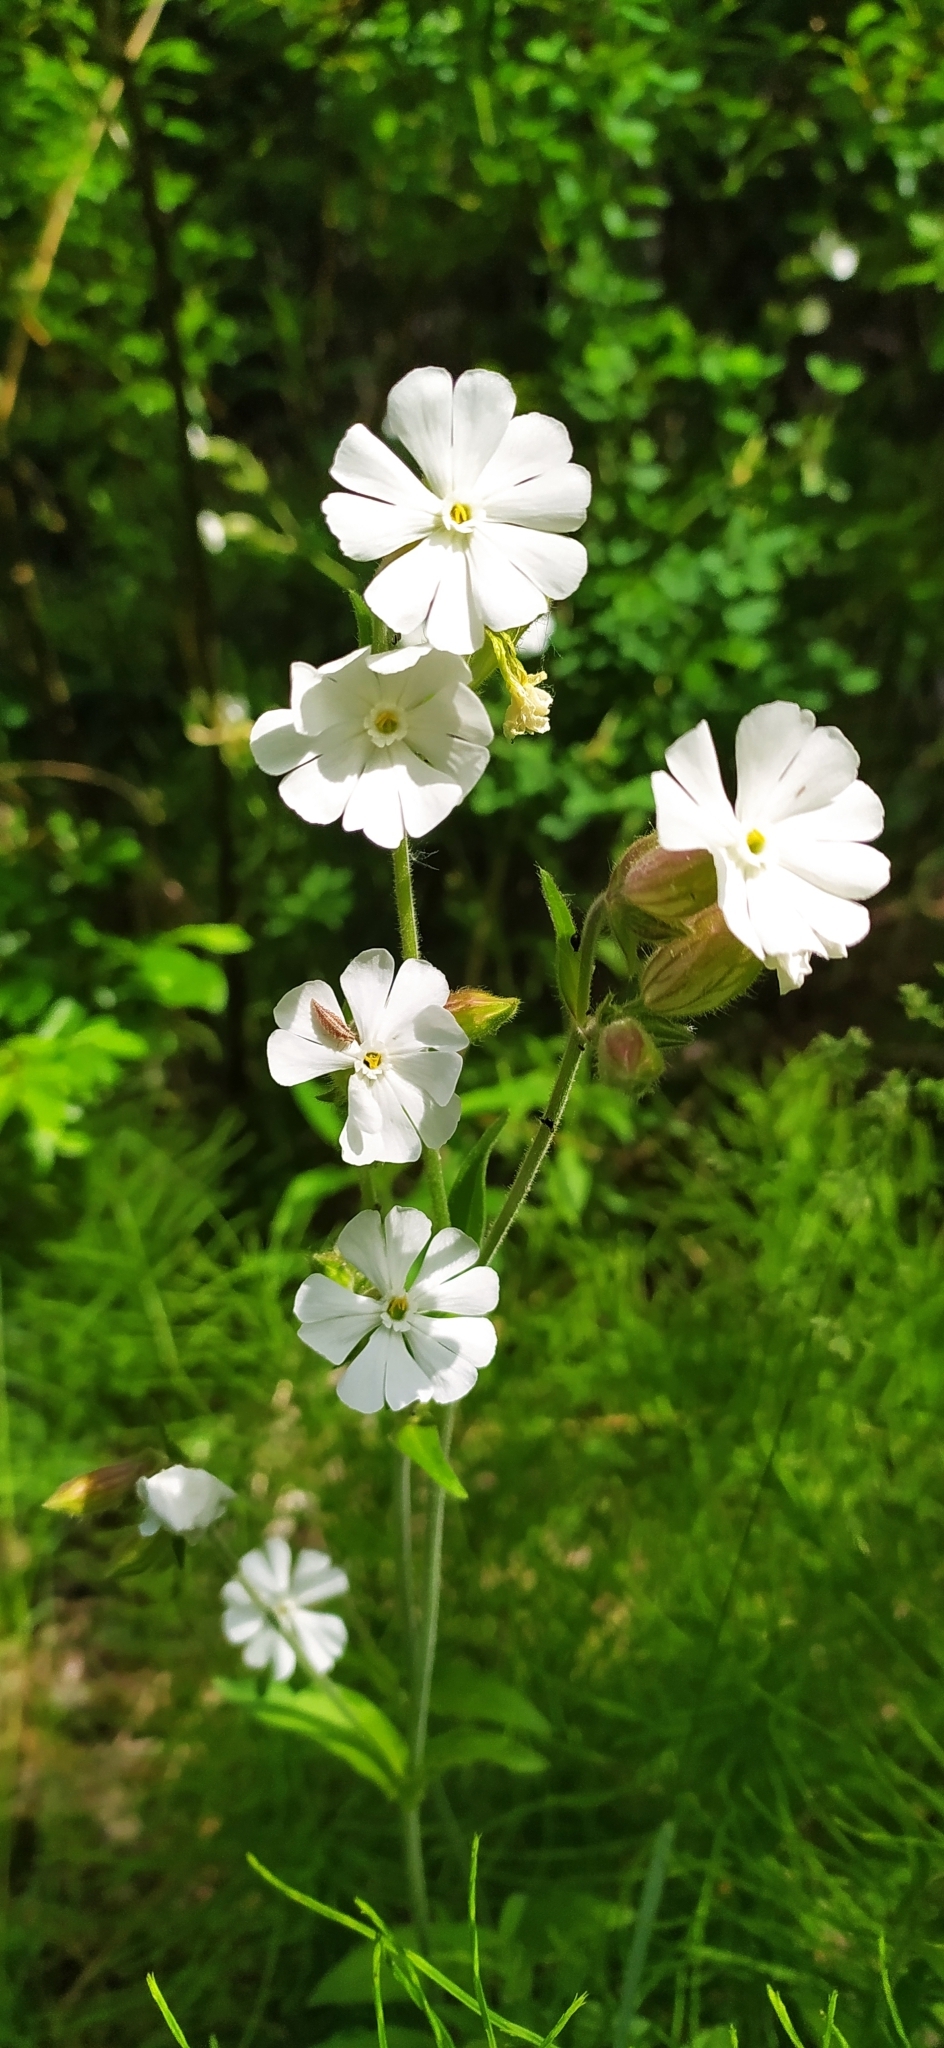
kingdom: Plantae
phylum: Tracheophyta
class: Magnoliopsida
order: Caryophyllales
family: Caryophyllaceae
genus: Silene
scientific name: Silene latifolia
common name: White campion
